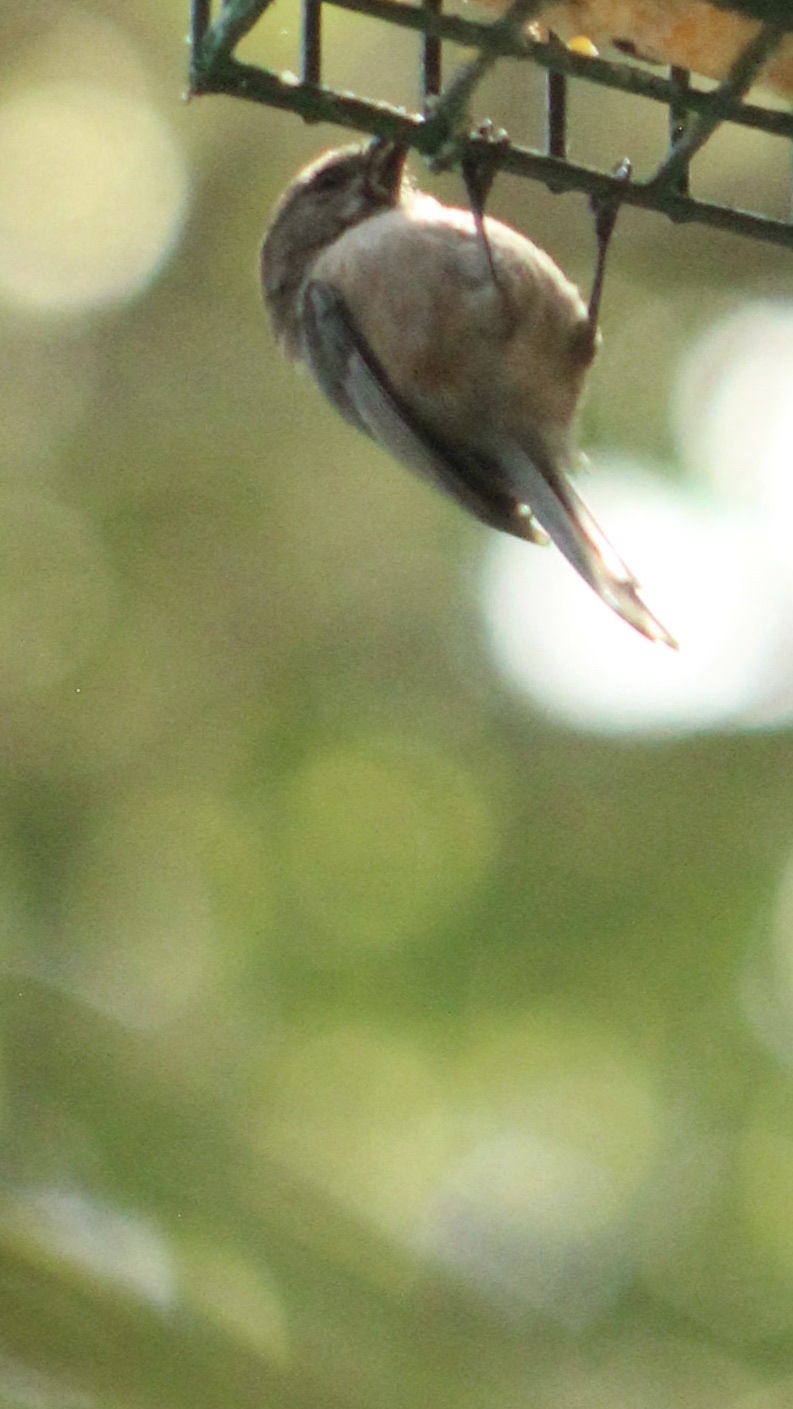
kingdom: Animalia
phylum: Chordata
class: Aves
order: Passeriformes
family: Aegithalidae
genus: Psaltriparus
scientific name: Psaltriparus minimus
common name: American bushtit
